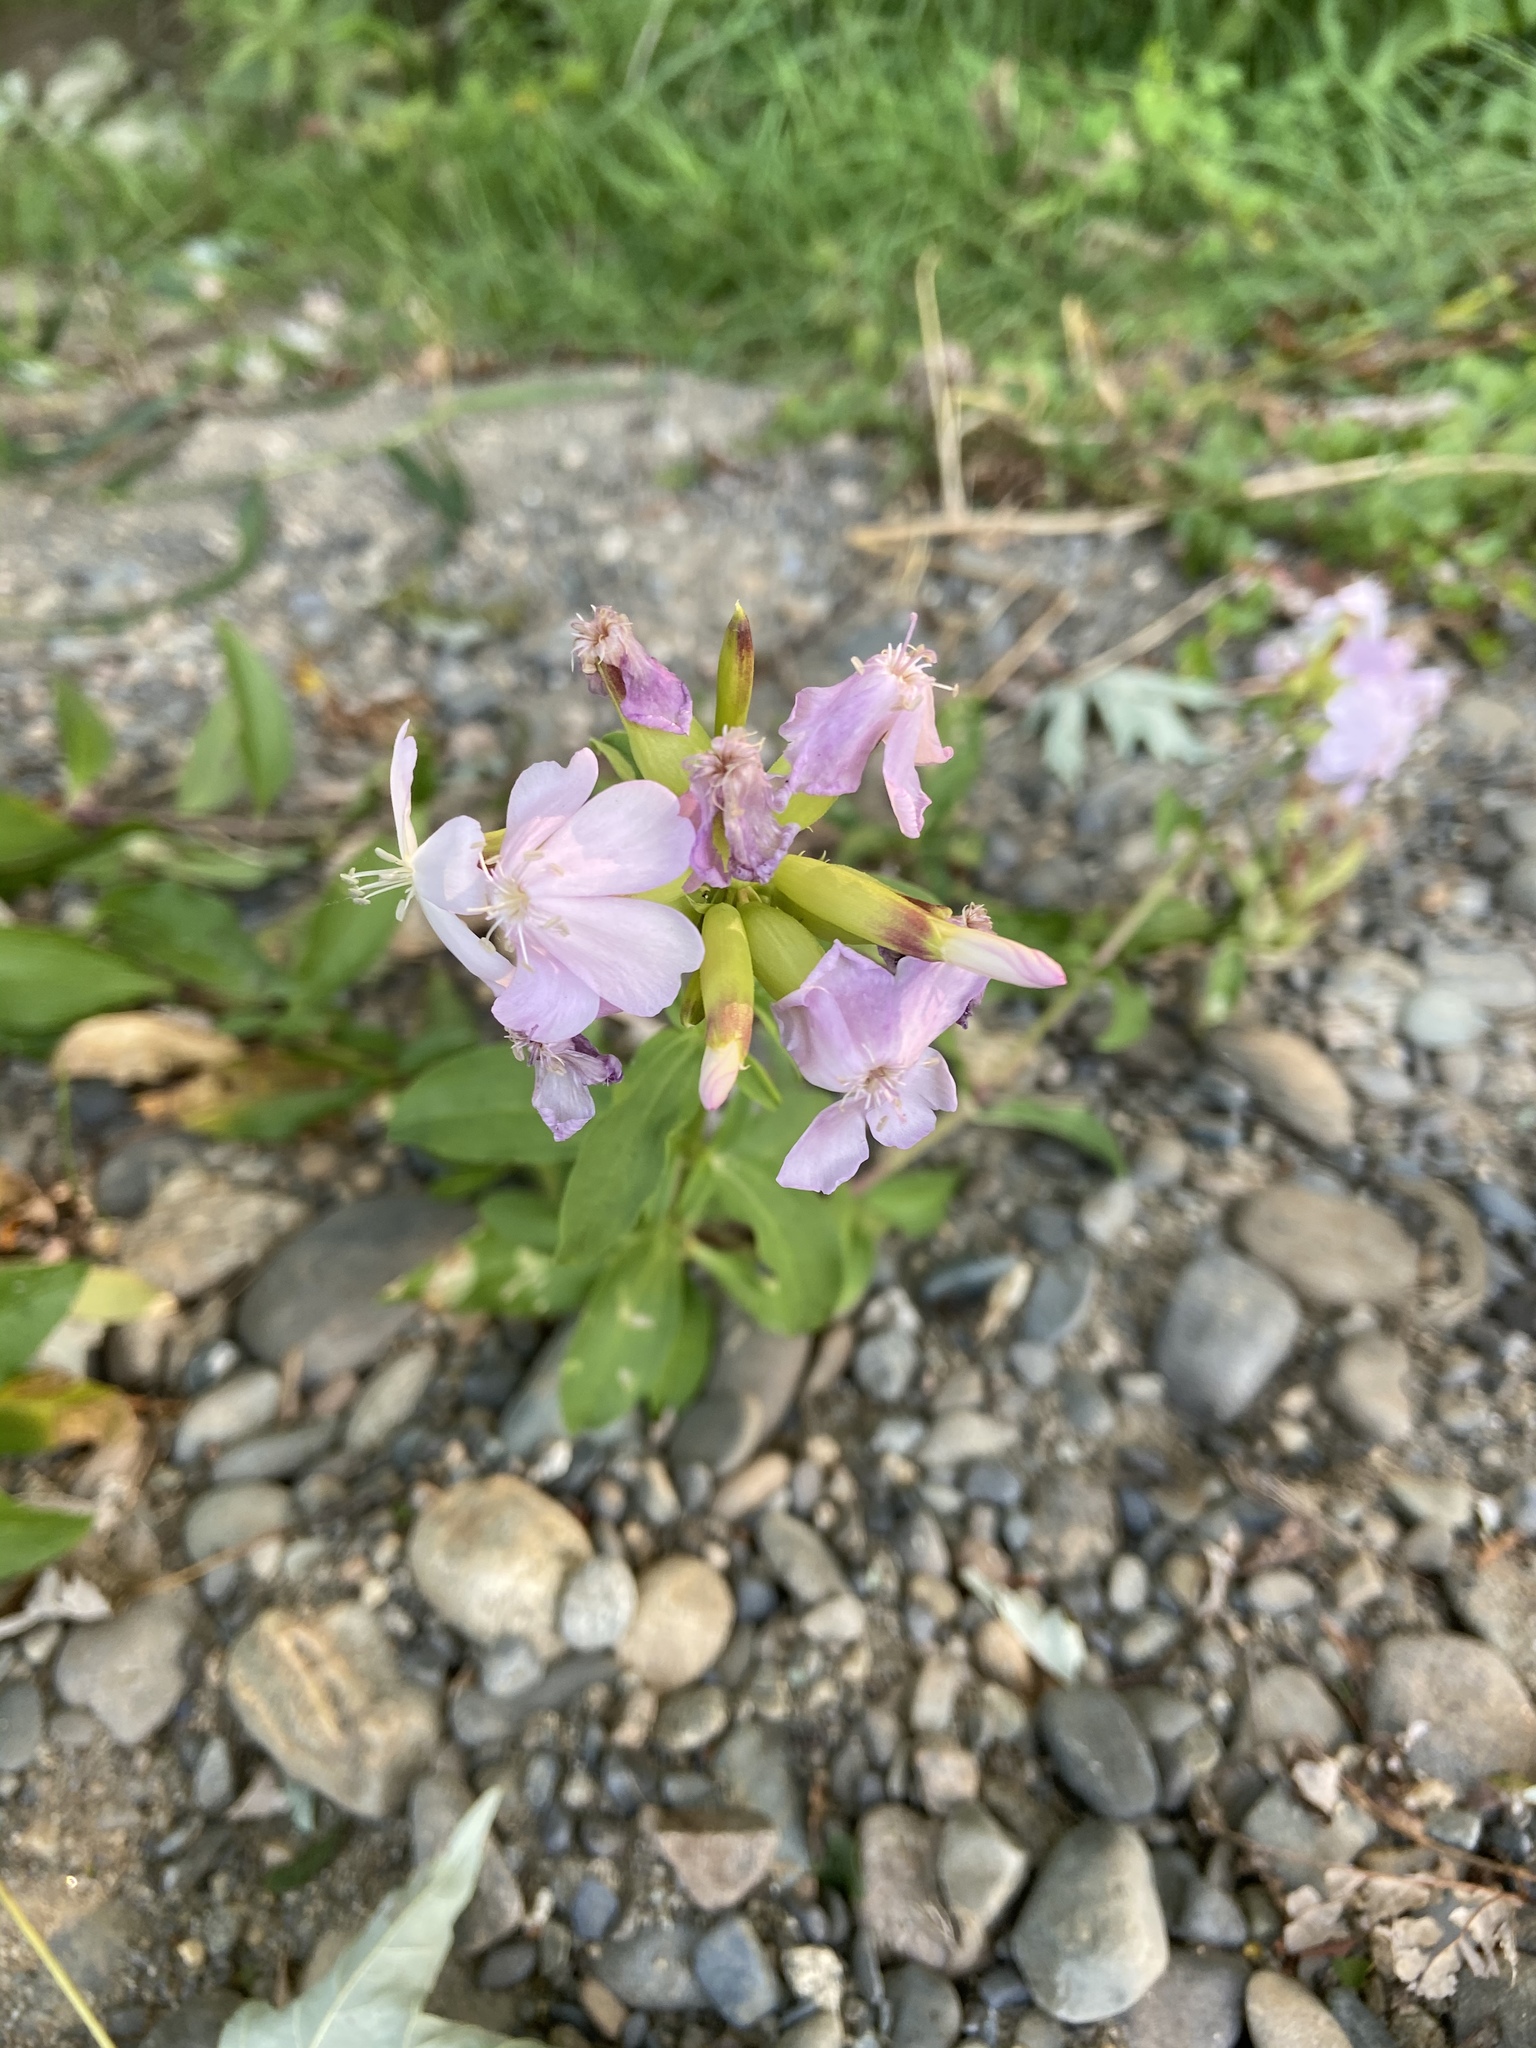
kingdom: Plantae
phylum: Tracheophyta
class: Magnoliopsida
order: Caryophyllales
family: Caryophyllaceae
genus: Saponaria
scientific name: Saponaria officinalis
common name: Soapwort
